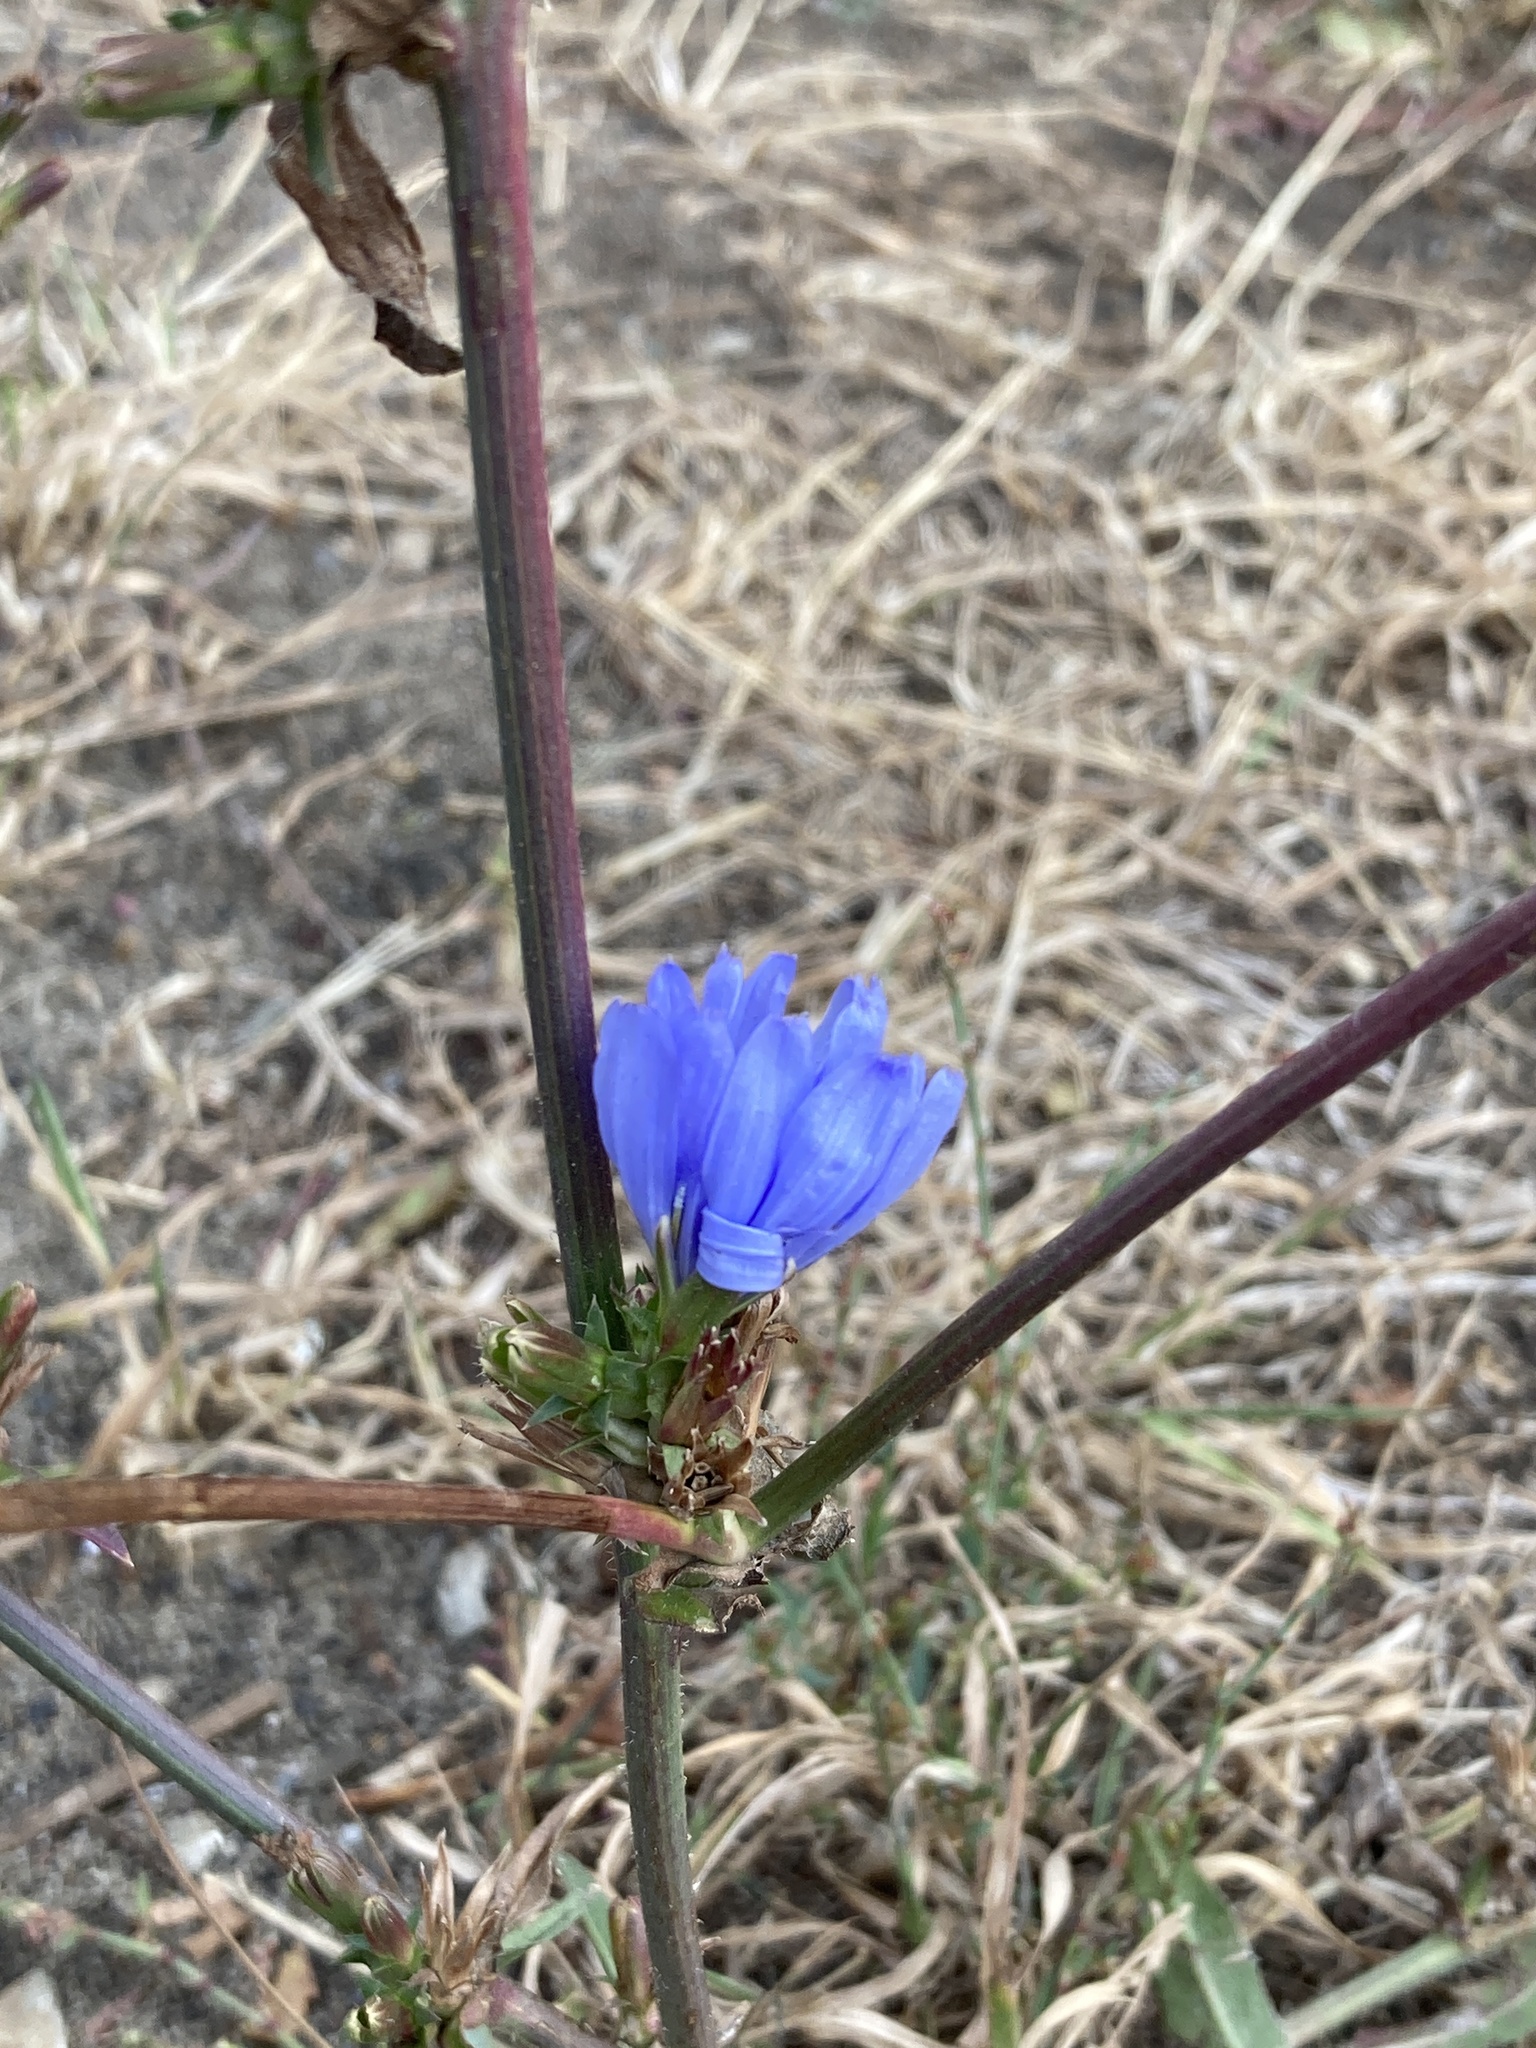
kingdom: Plantae
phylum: Tracheophyta
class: Magnoliopsida
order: Asterales
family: Asteraceae
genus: Cichorium
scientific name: Cichorium intybus
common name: Chicory
